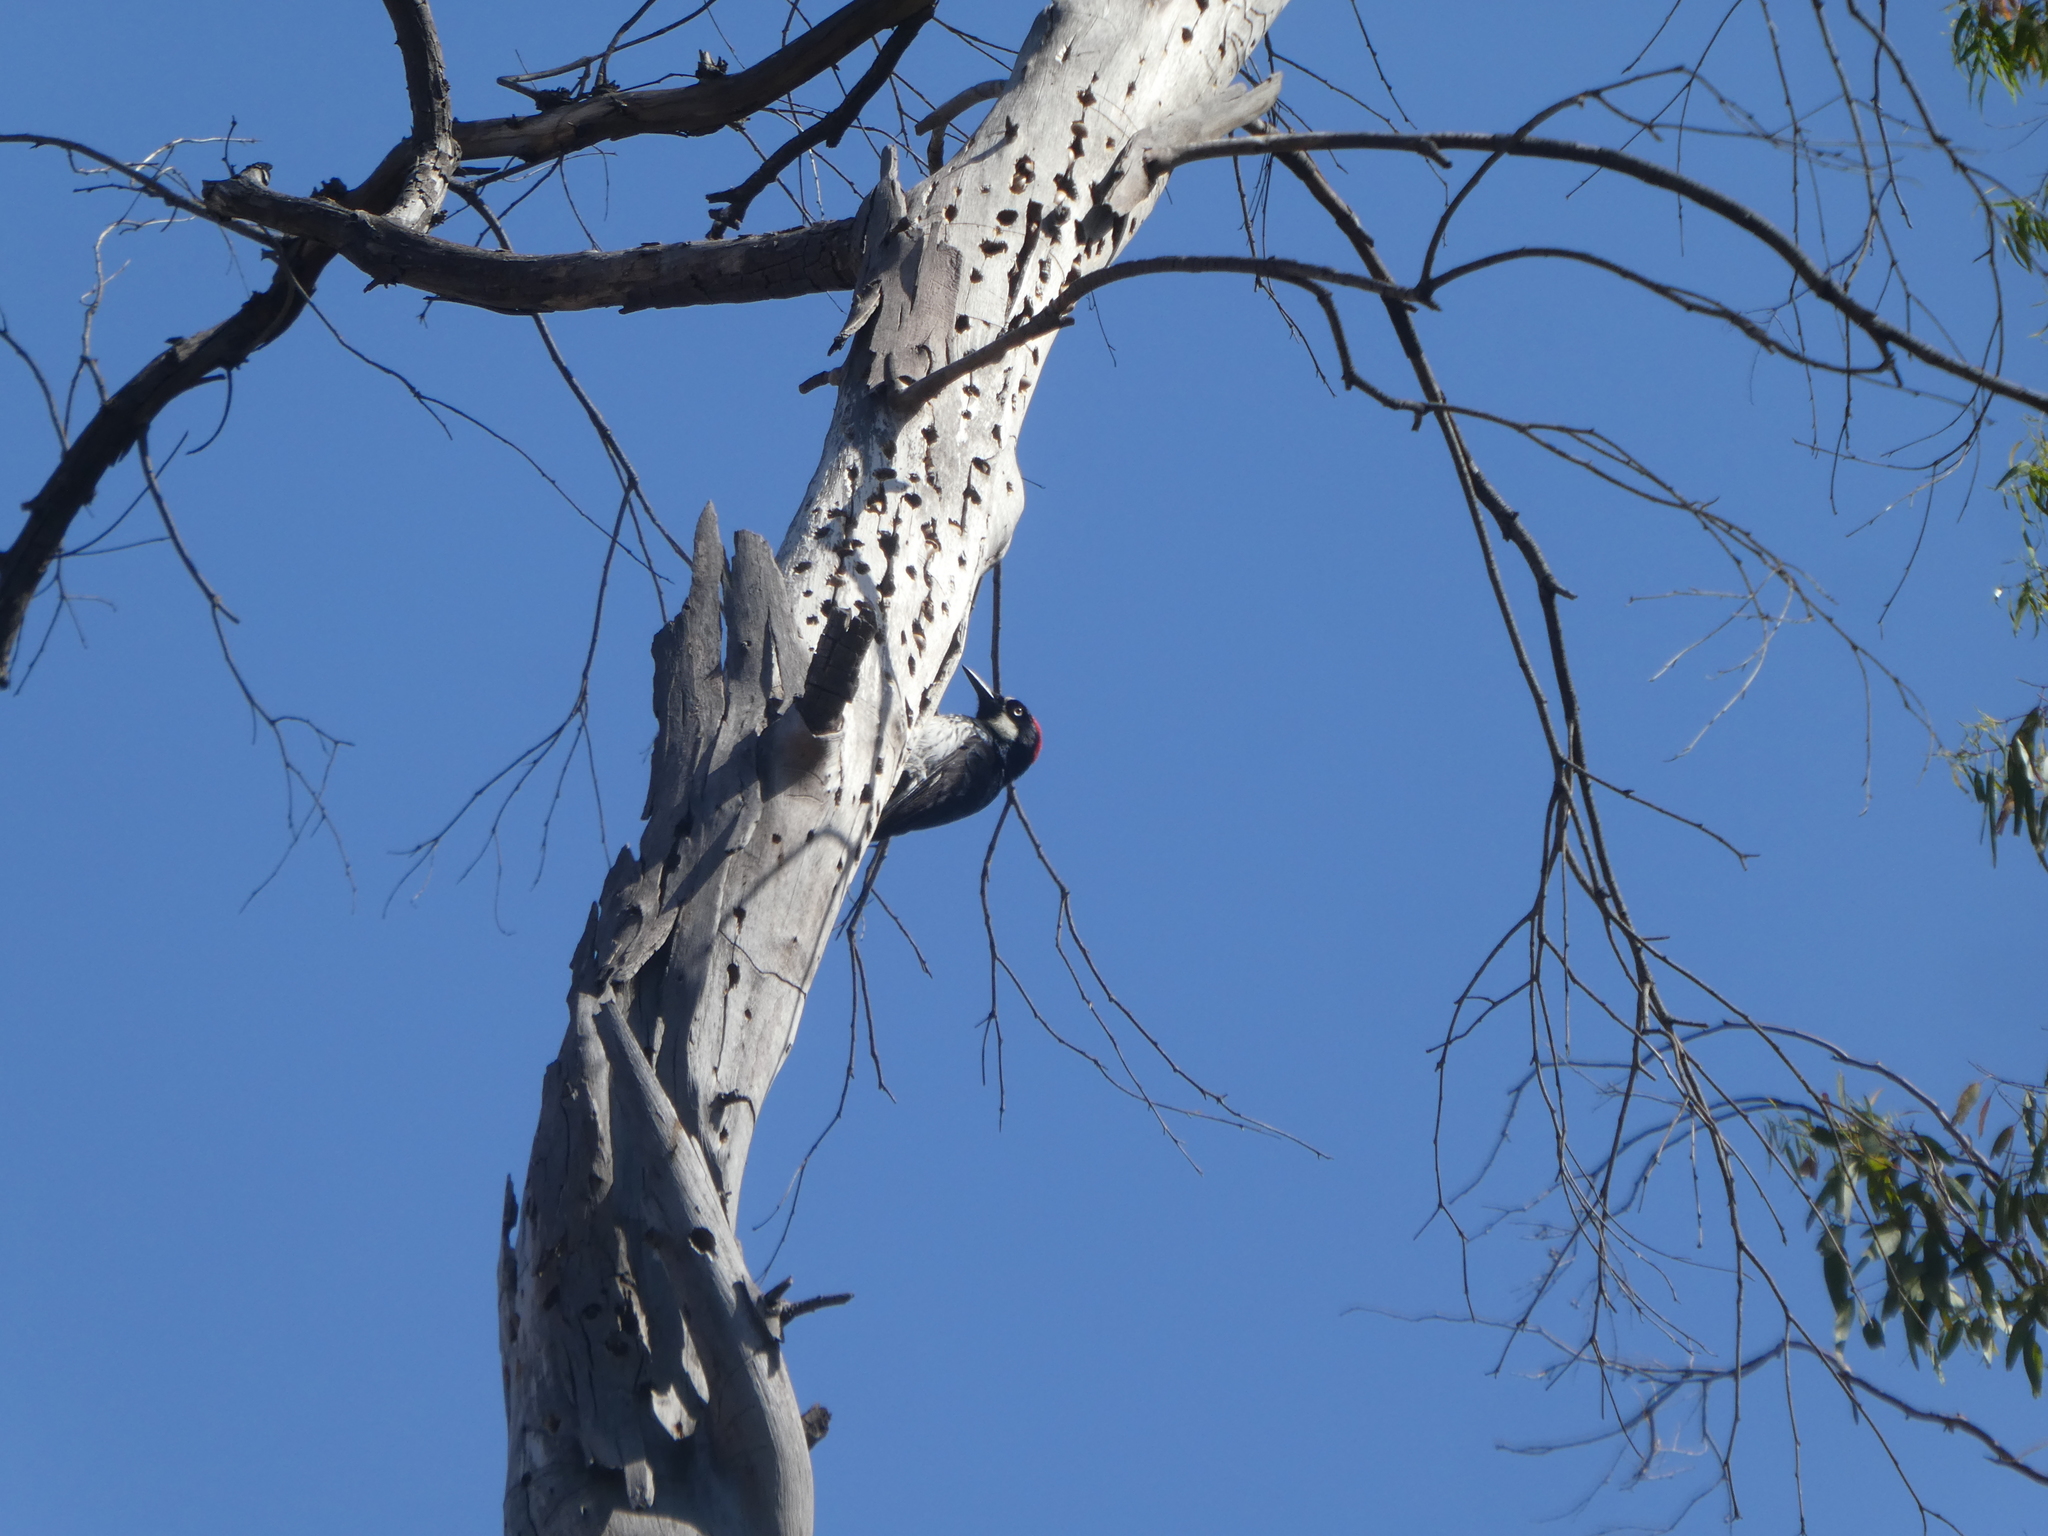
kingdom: Animalia
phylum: Chordata
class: Aves
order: Piciformes
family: Picidae
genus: Melanerpes
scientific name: Melanerpes formicivorus
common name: Acorn woodpecker
